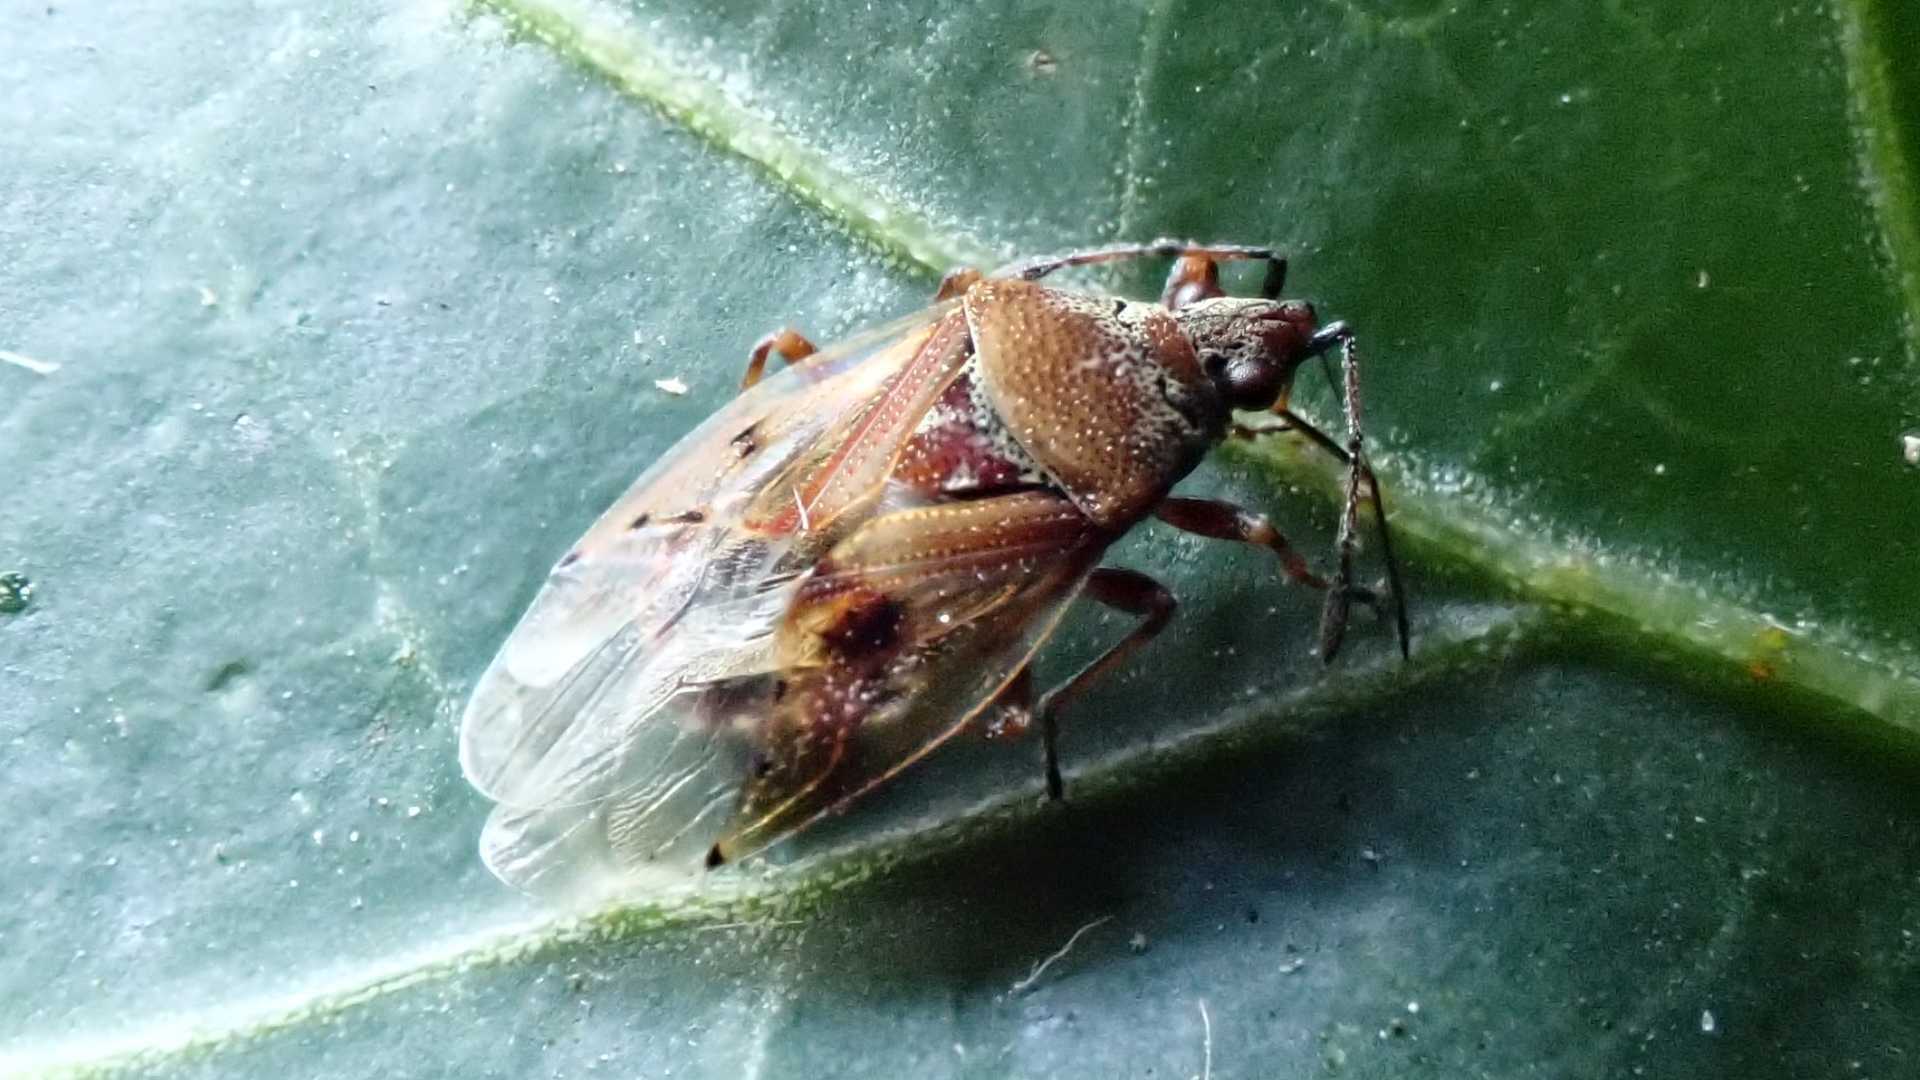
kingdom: Animalia
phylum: Arthropoda
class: Insecta
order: Hemiptera
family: Lygaeidae
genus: Kleidocerys
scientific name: Kleidocerys resedae
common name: Birch catkin bug
